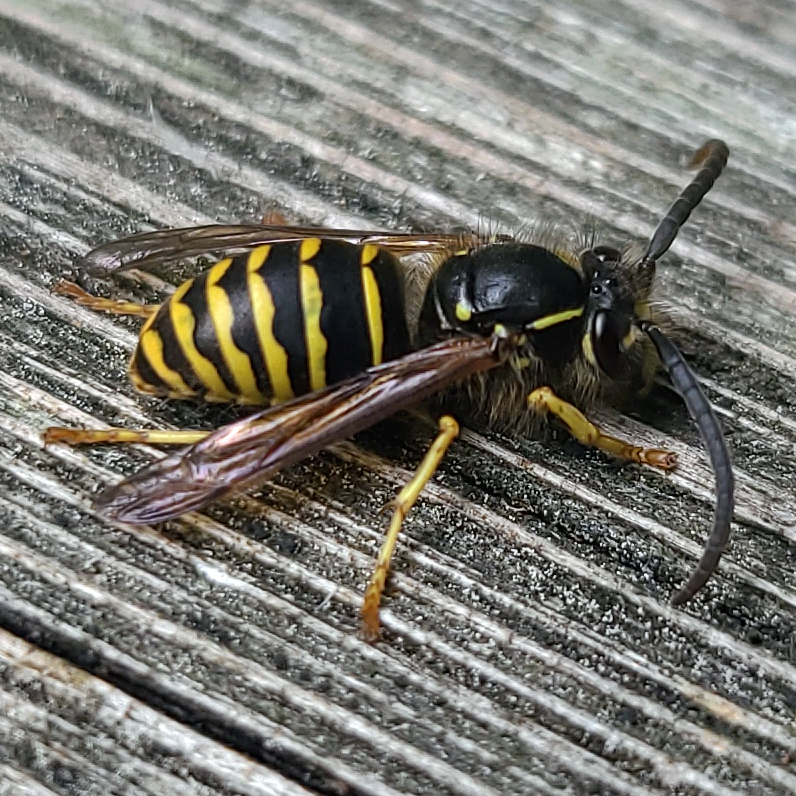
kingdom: Animalia
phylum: Arthropoda
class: Insecta
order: Hymenoptera
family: Vespidae
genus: Dolichovespula
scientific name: Dolichovespula arenaria
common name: Aerial yellowjacket
